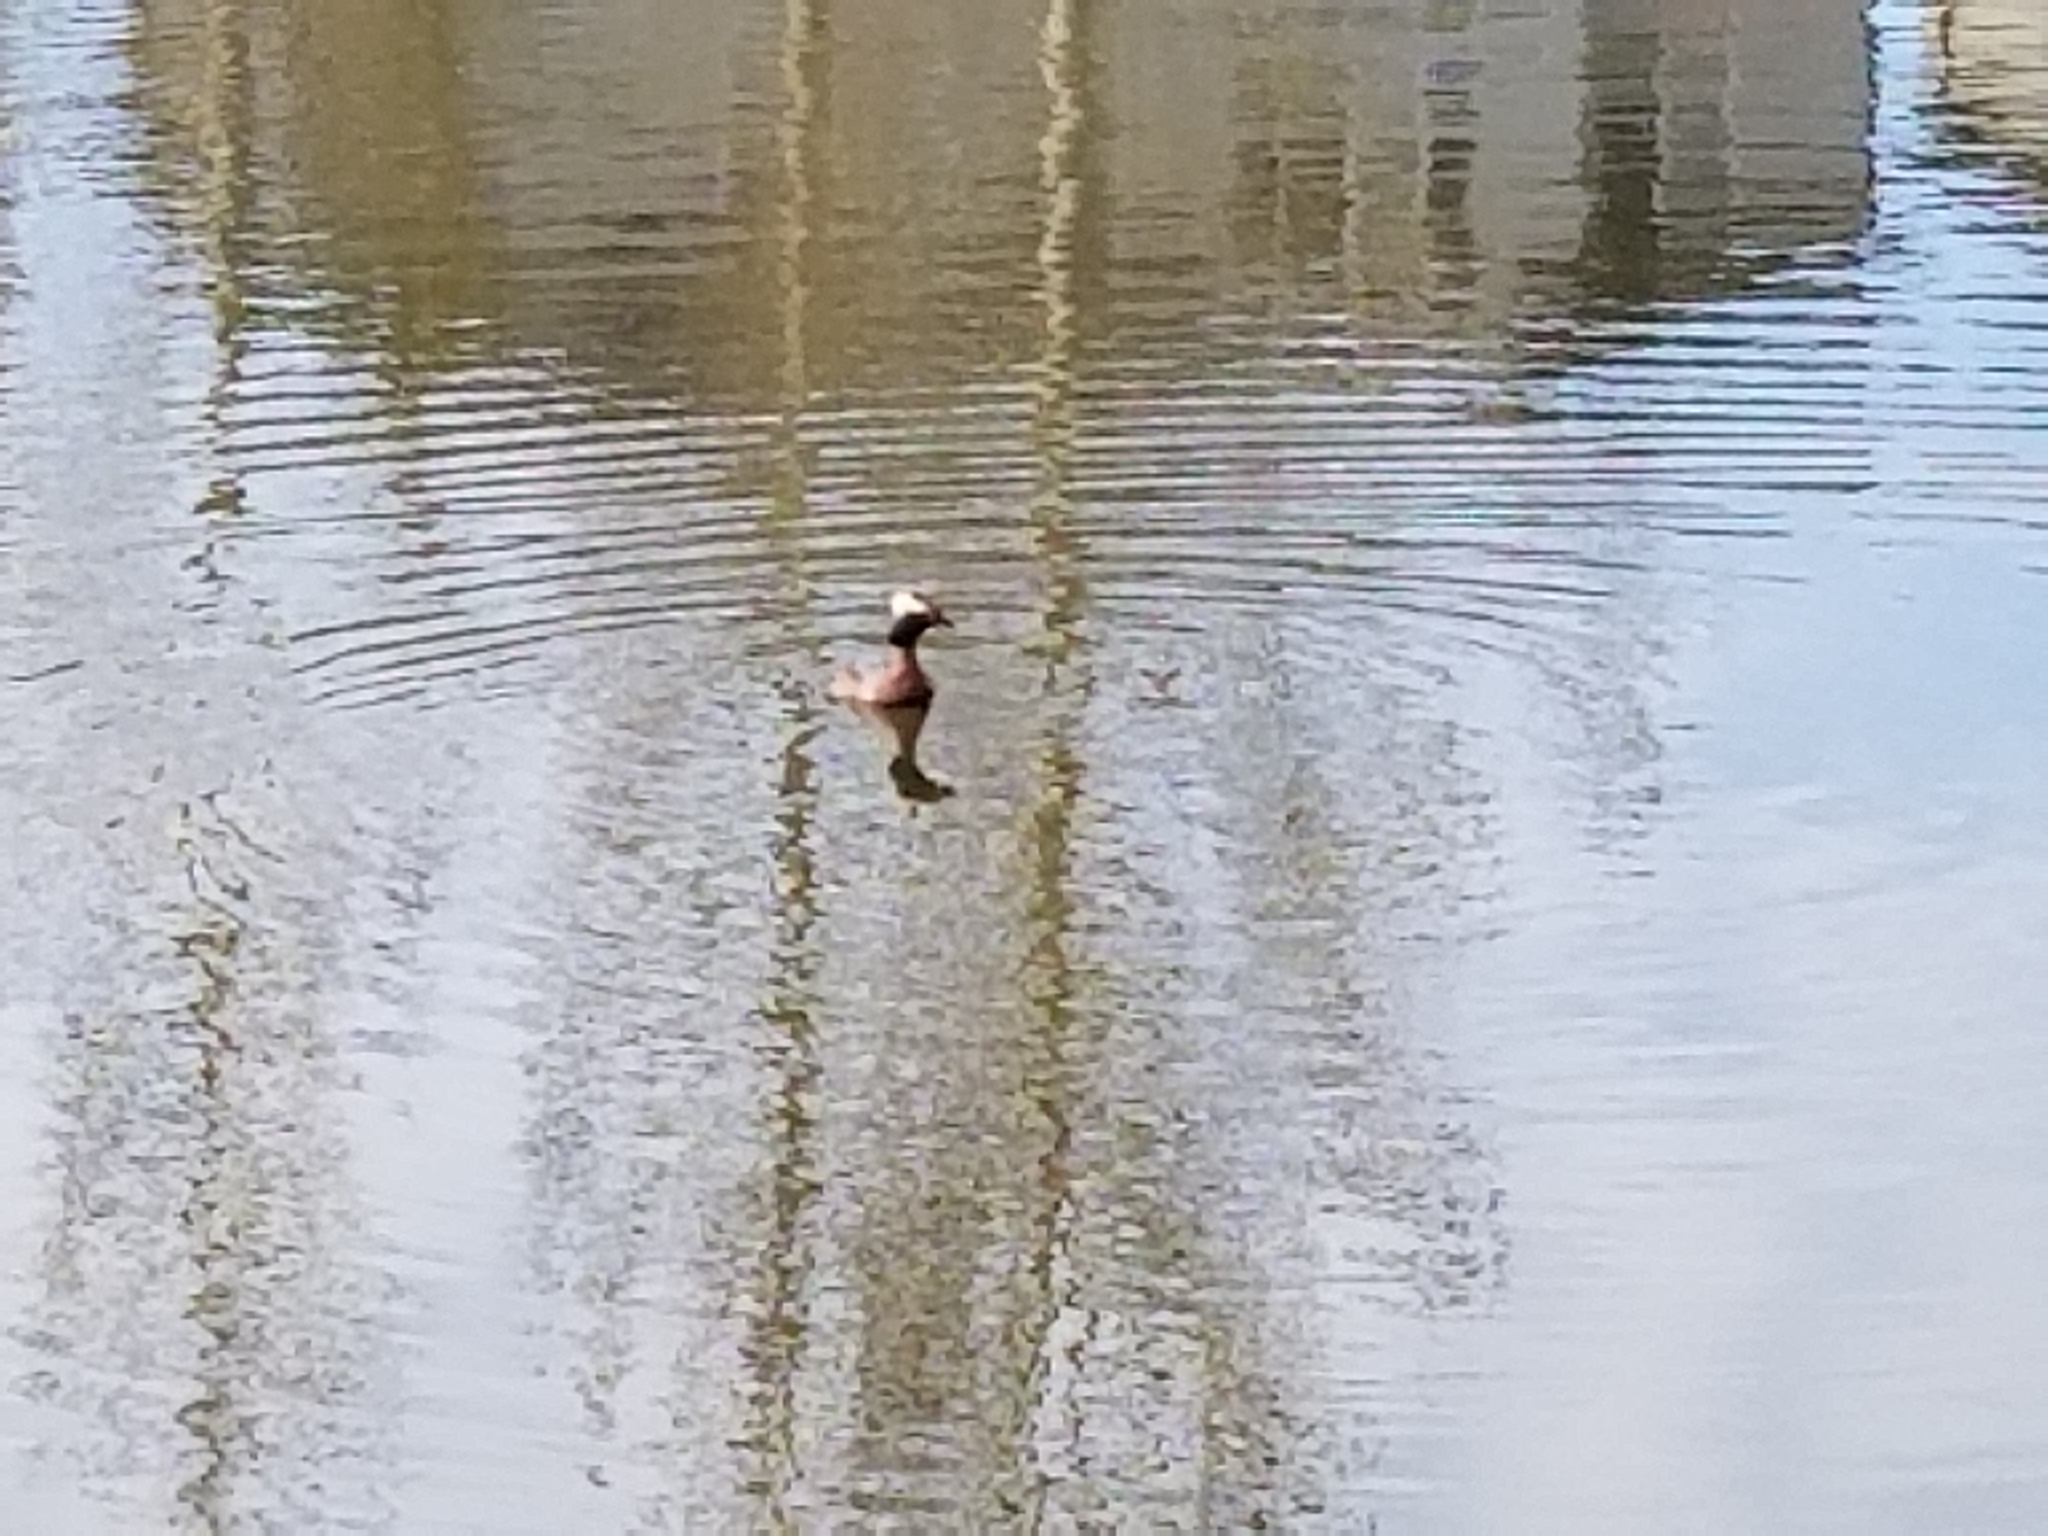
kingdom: Animalia
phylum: Chordata
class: Aves
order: Podicipediformes
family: Podicipedidae
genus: Podiceps
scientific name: Podiceps auritus
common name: Horned grebe
